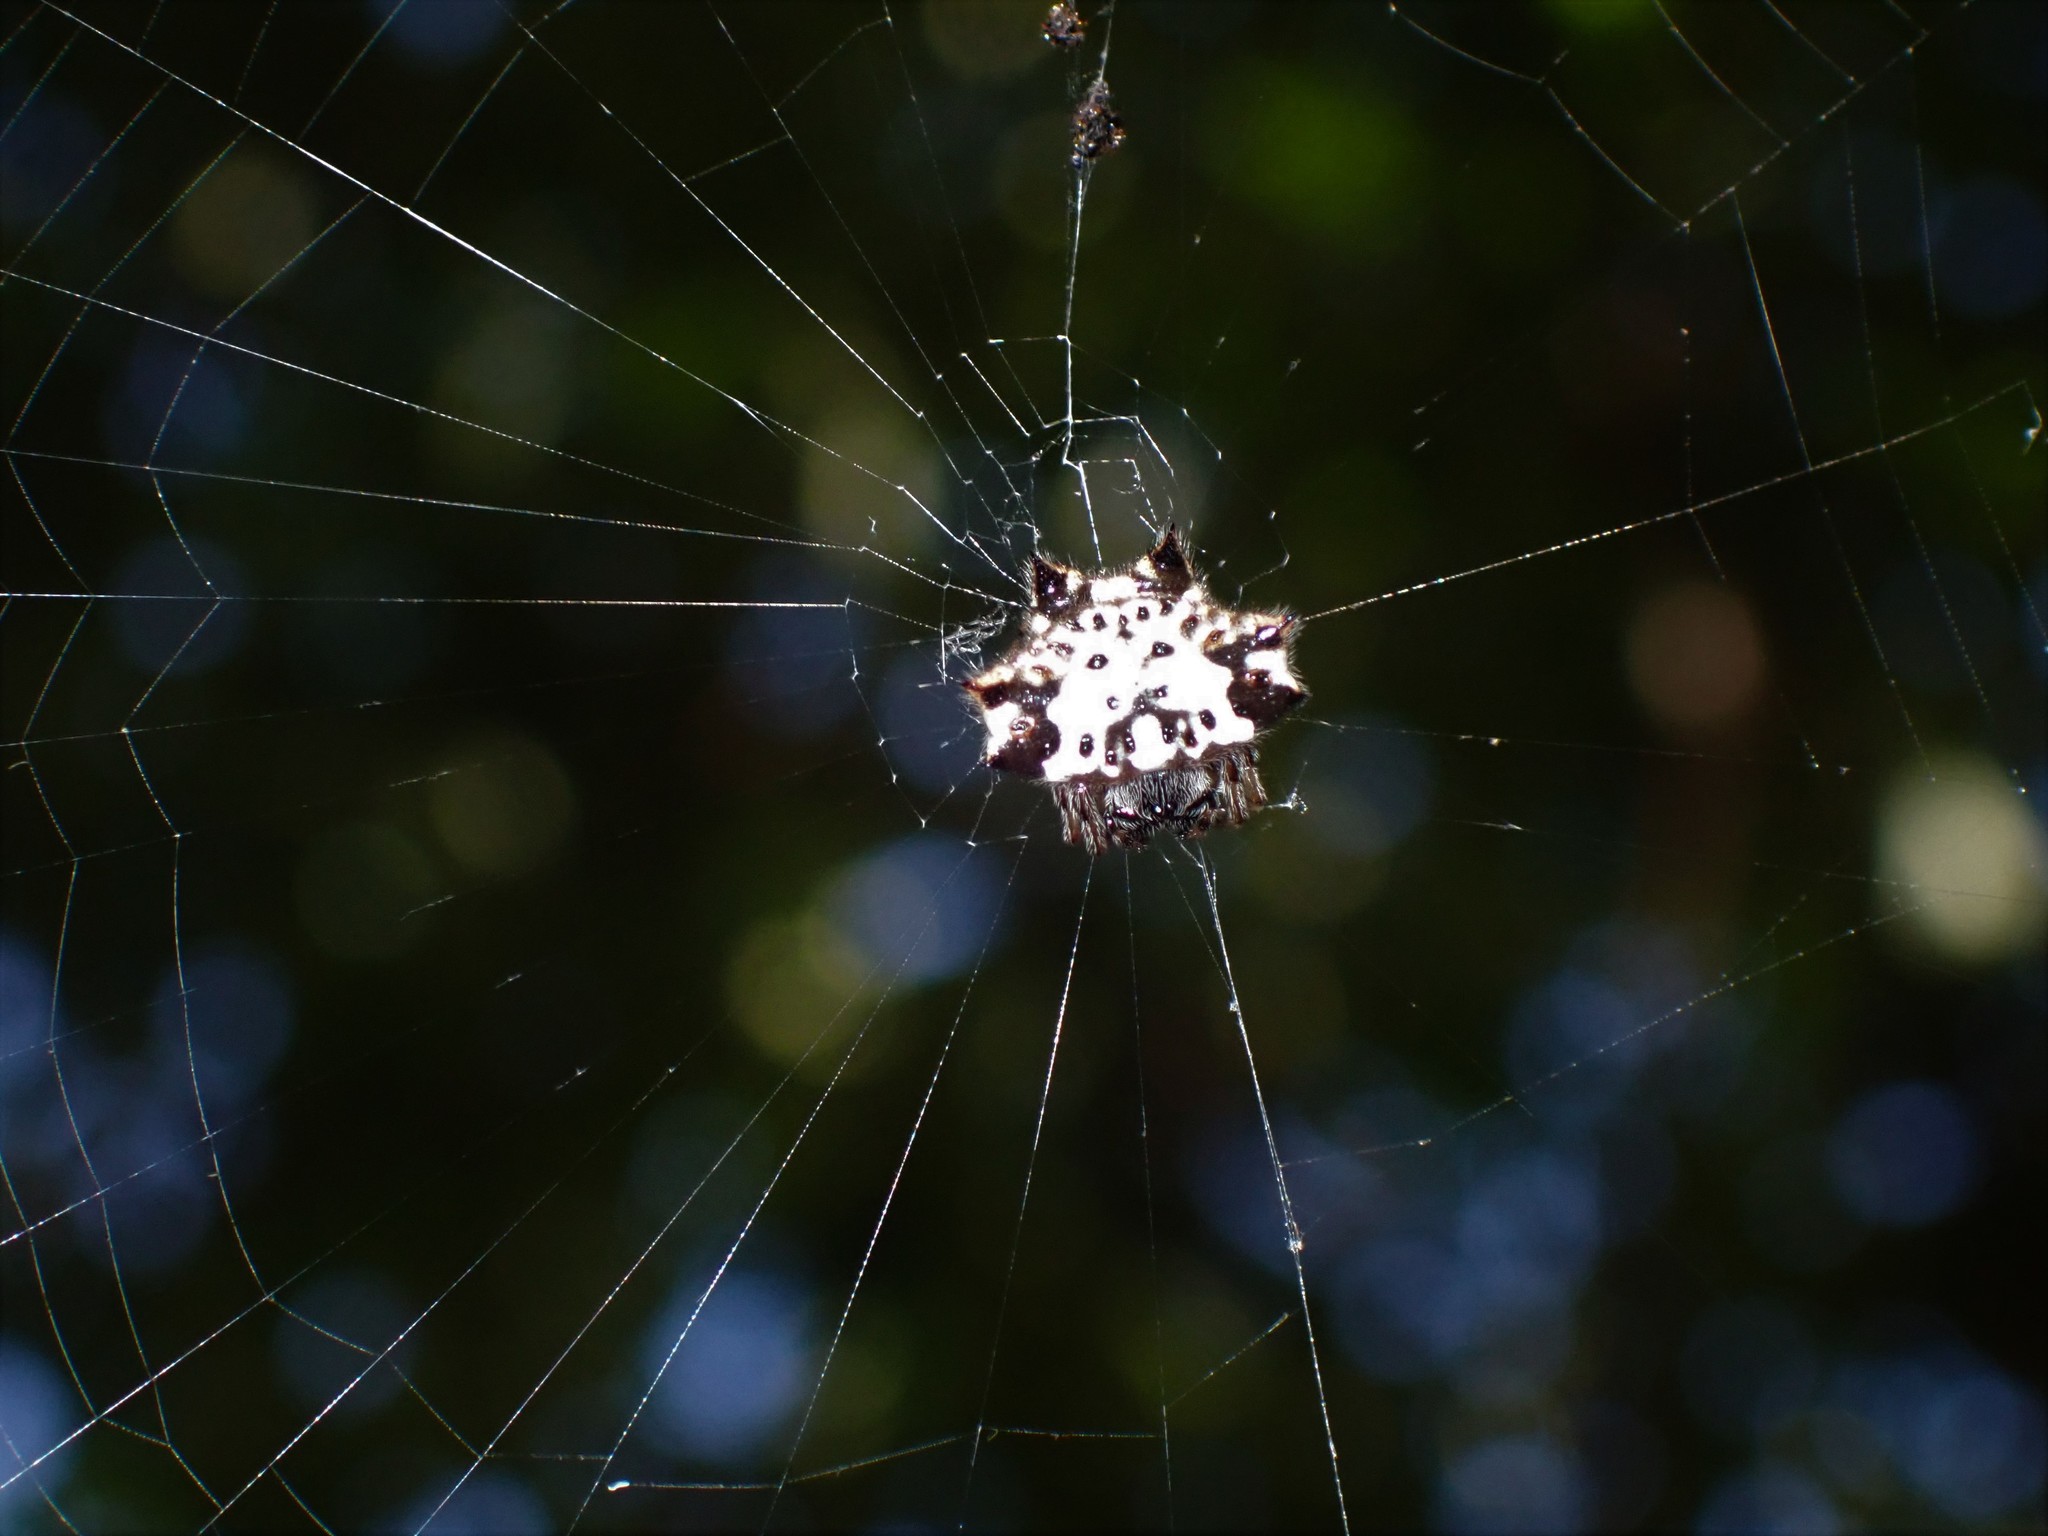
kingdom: Animalia
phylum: Arthropoda
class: Arachnida
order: Araneae
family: Araneidae
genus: Gasteracantha
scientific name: Gasteracantha kuhli
